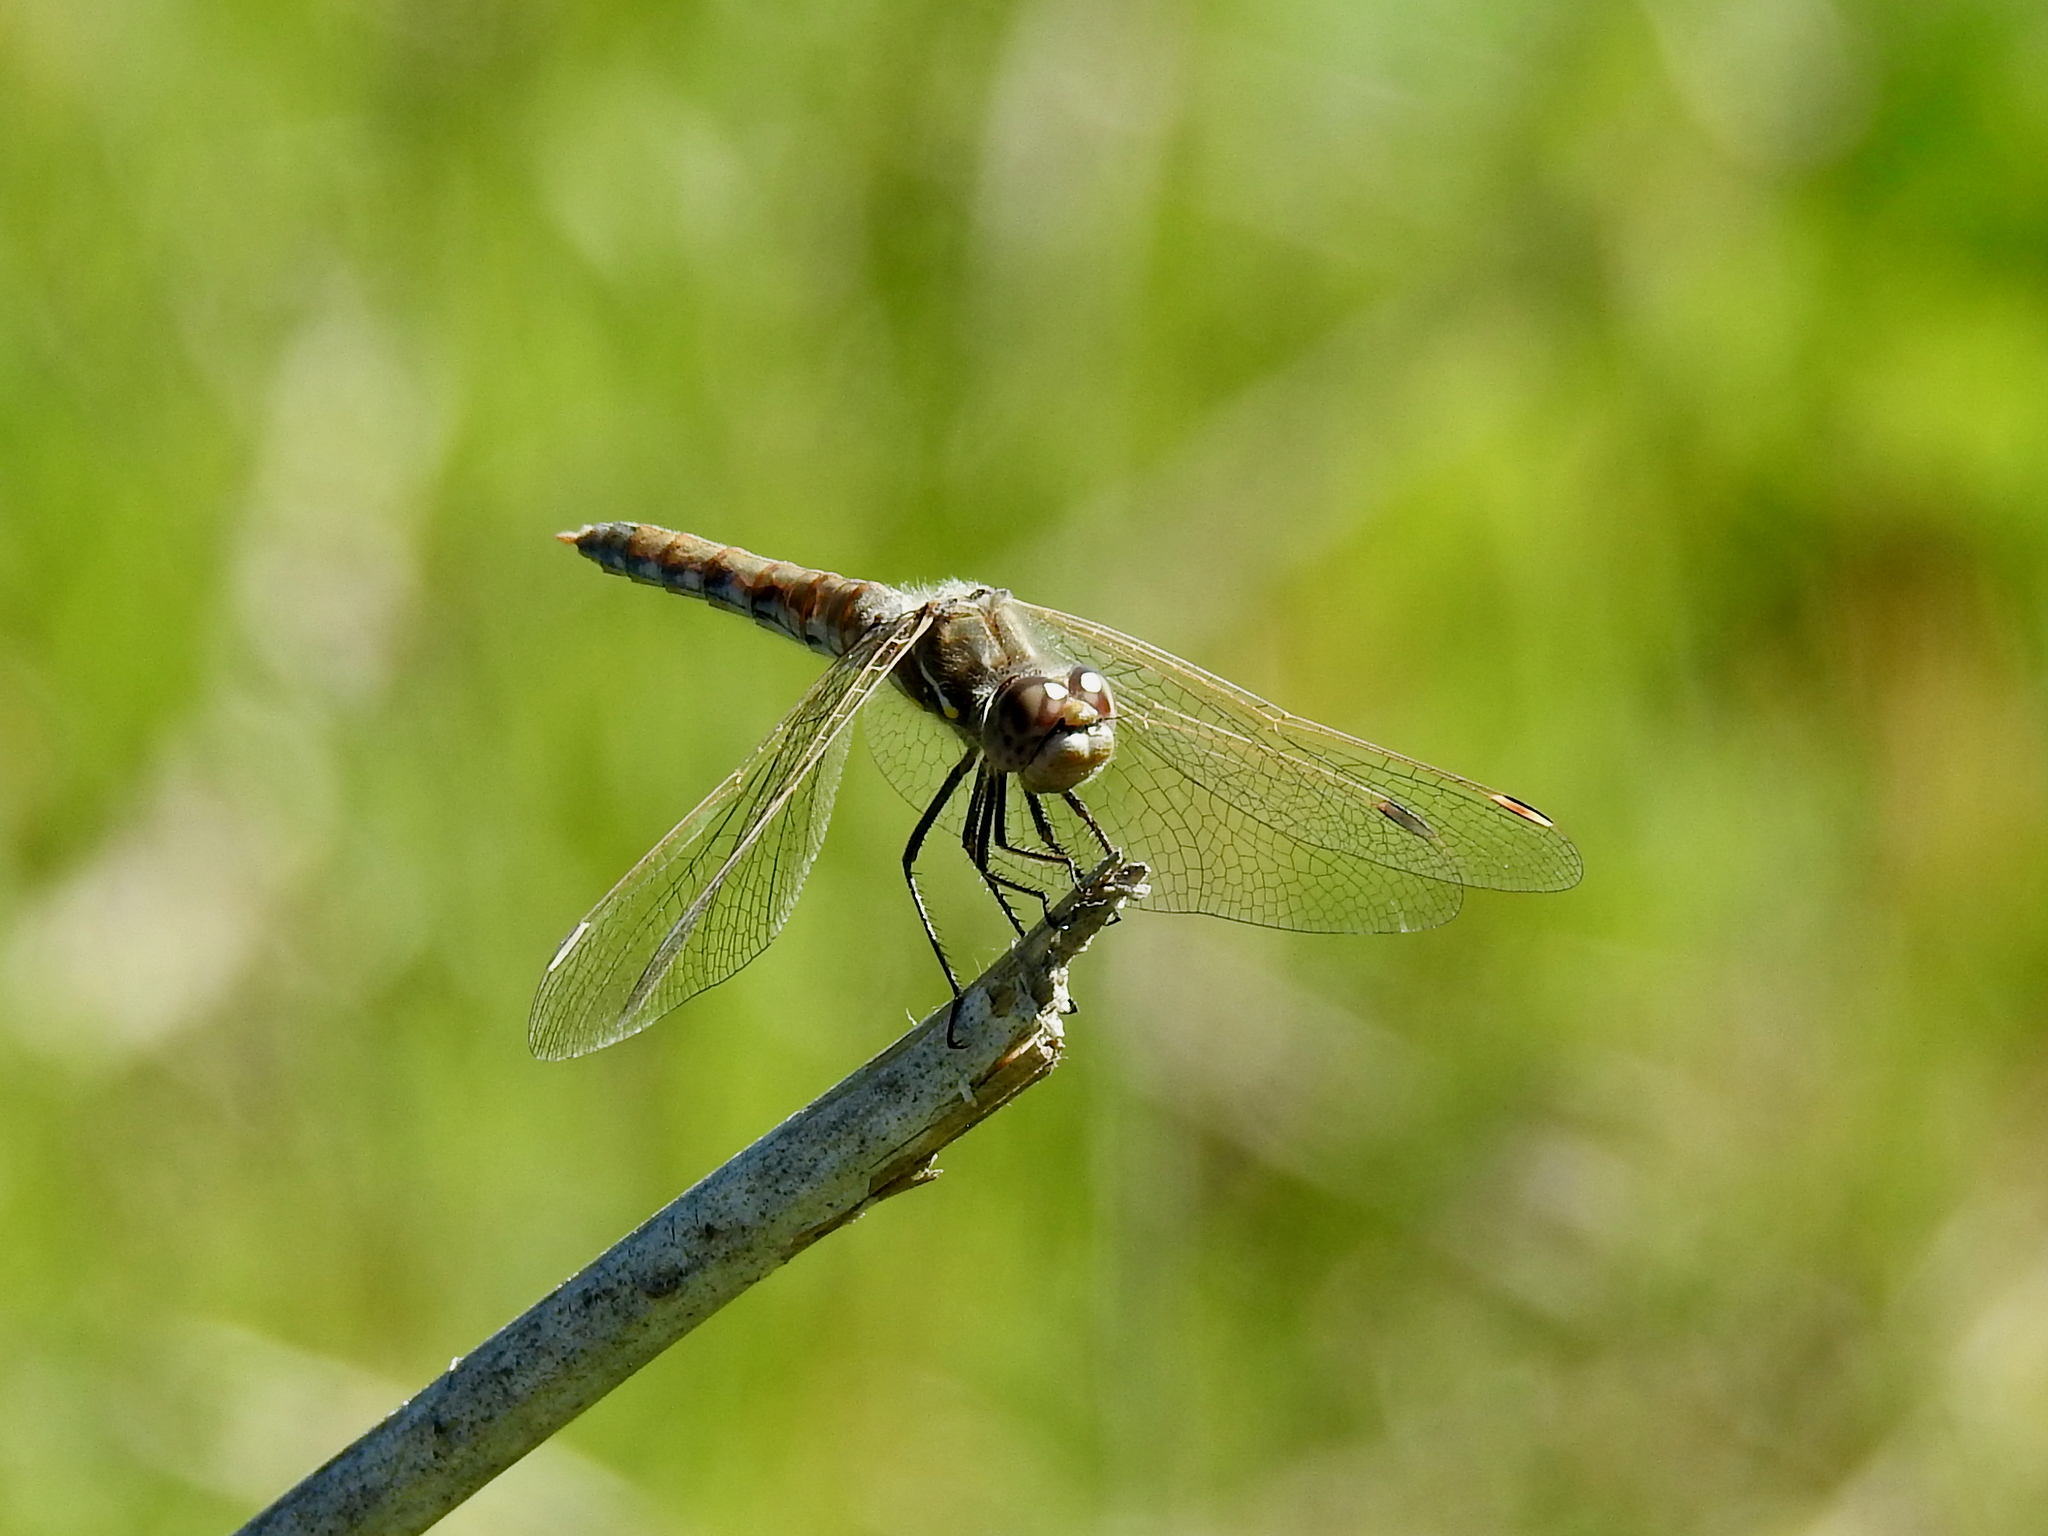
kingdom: Animalia
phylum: Arthropoda
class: Insecta
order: Odonata
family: Libellulidae
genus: Sympetrum
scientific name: Sympetrum corruptum
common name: Variegated meadowhawk
